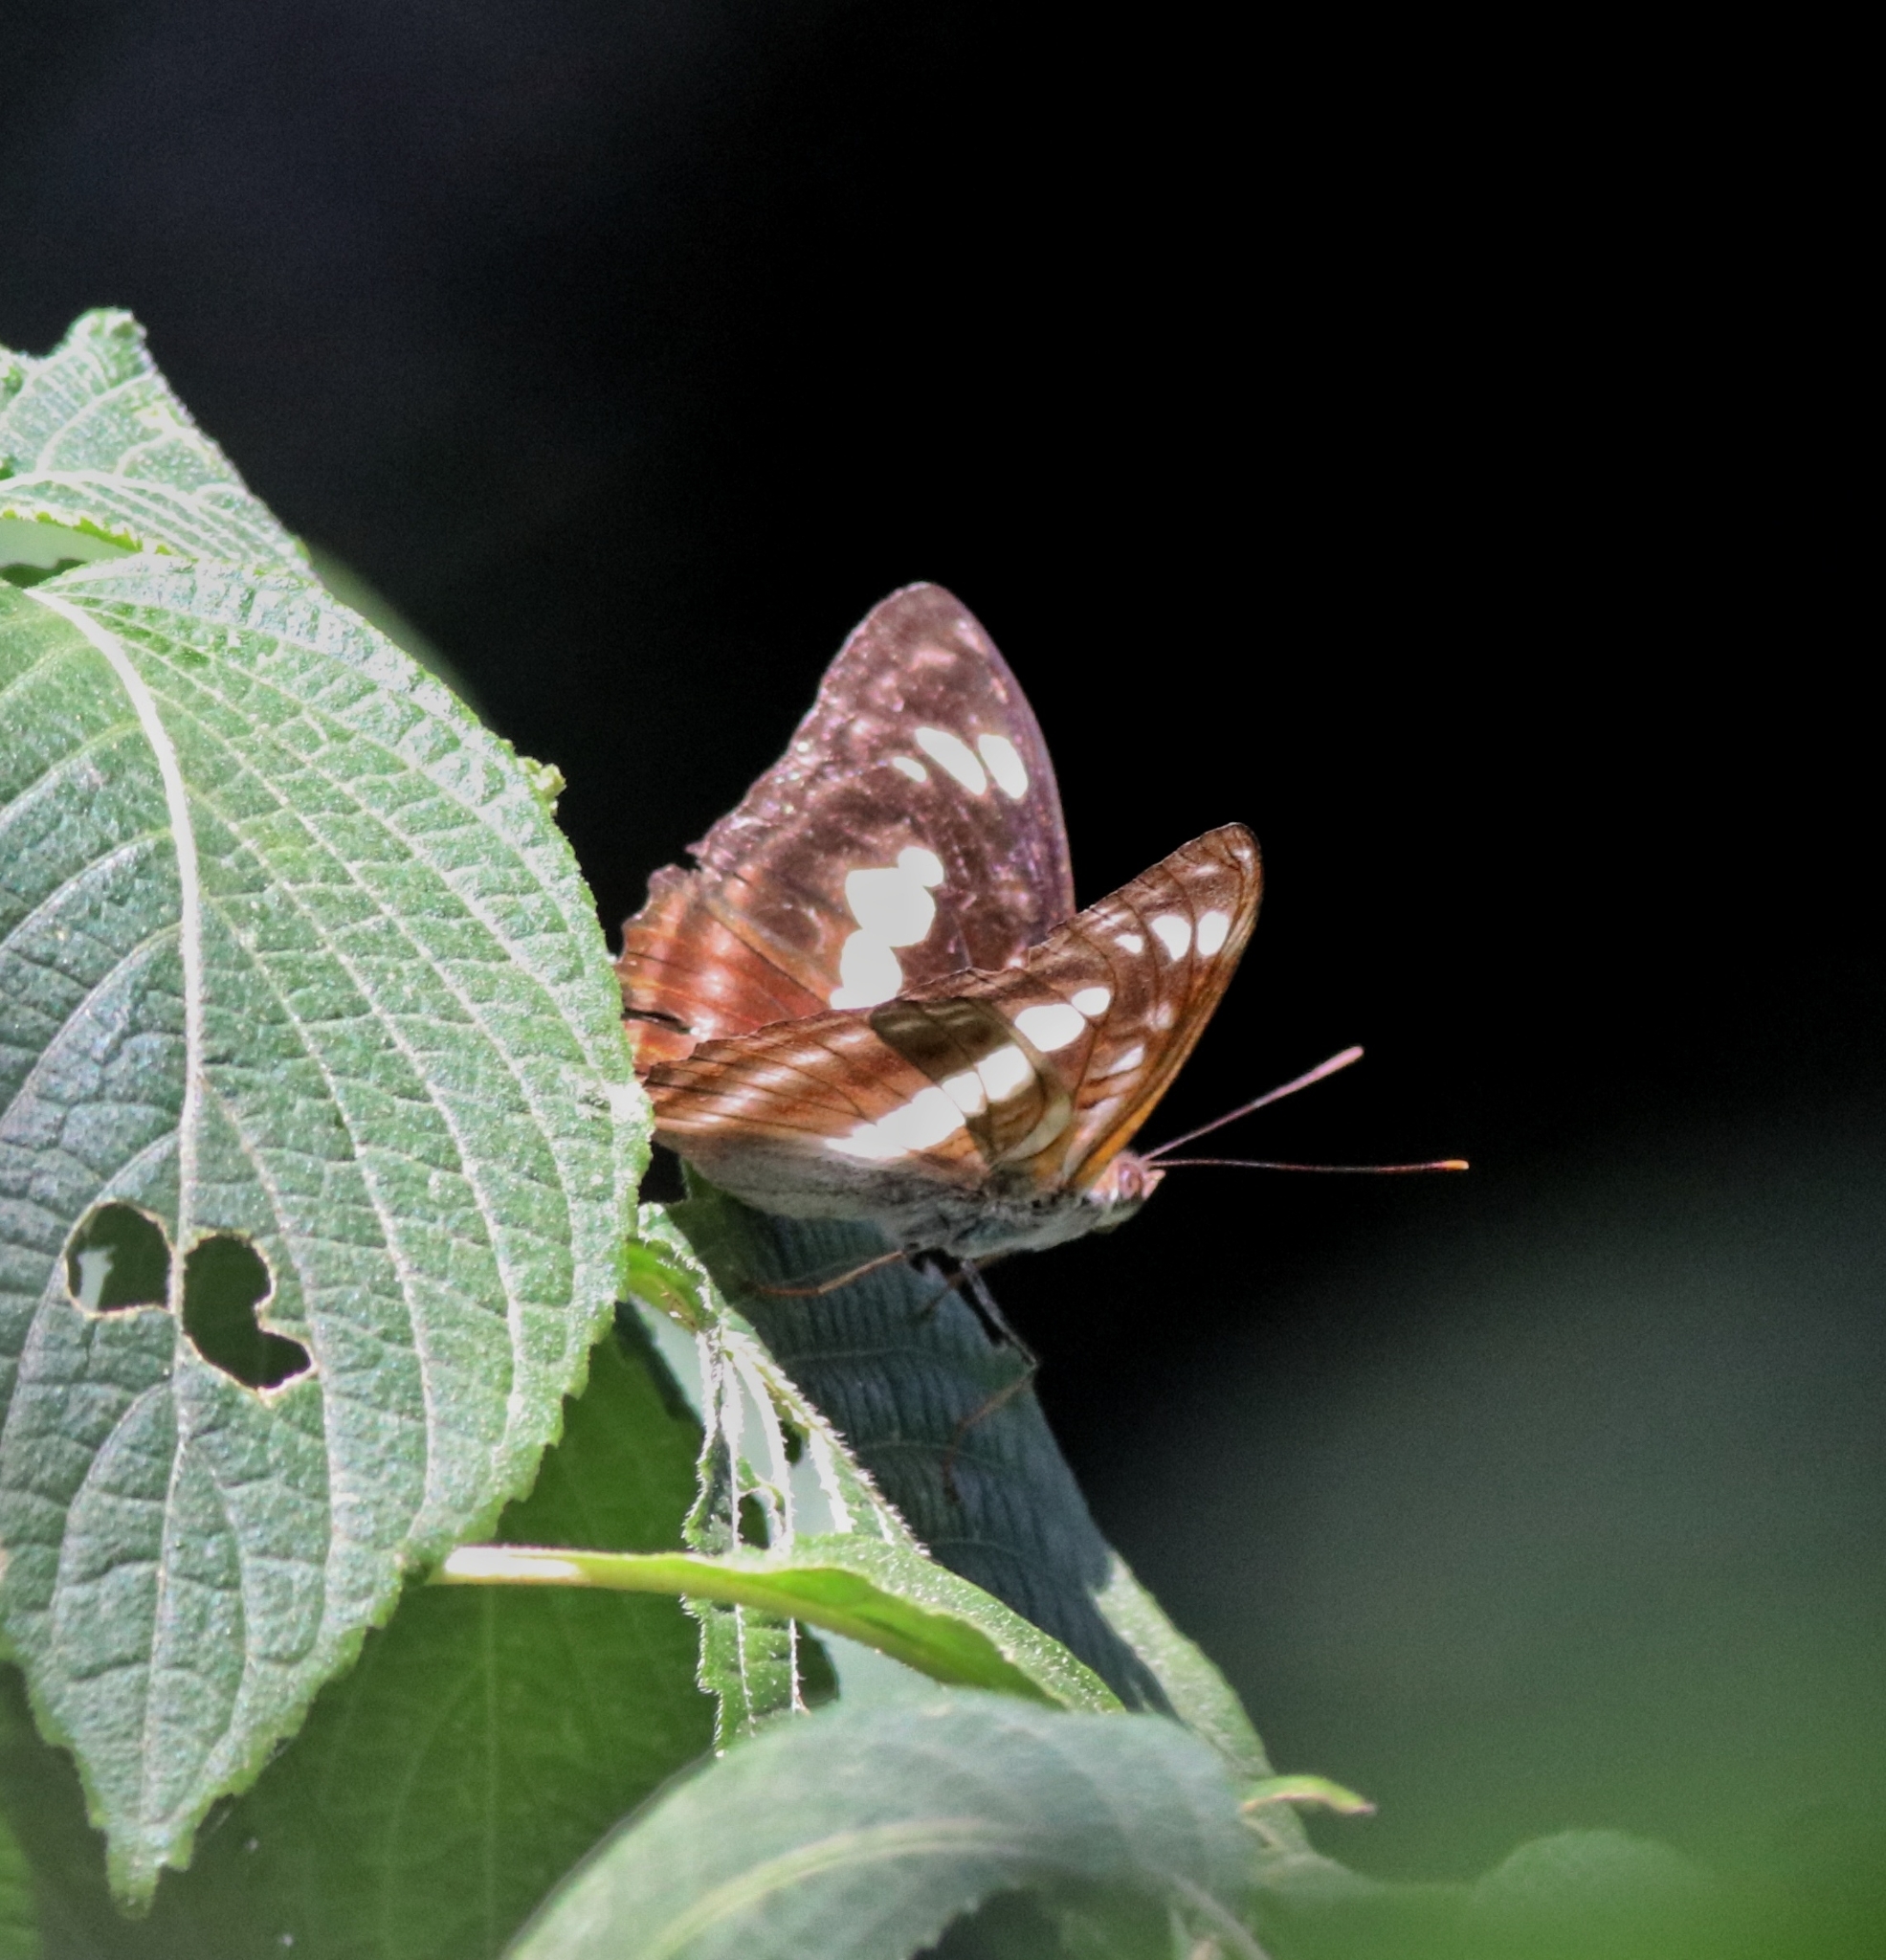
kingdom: Animalia
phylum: Arthropoda
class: Insecta
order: Lepidoptera
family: Nymphalidae
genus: Parathyma
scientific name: Parathyma selenophora
